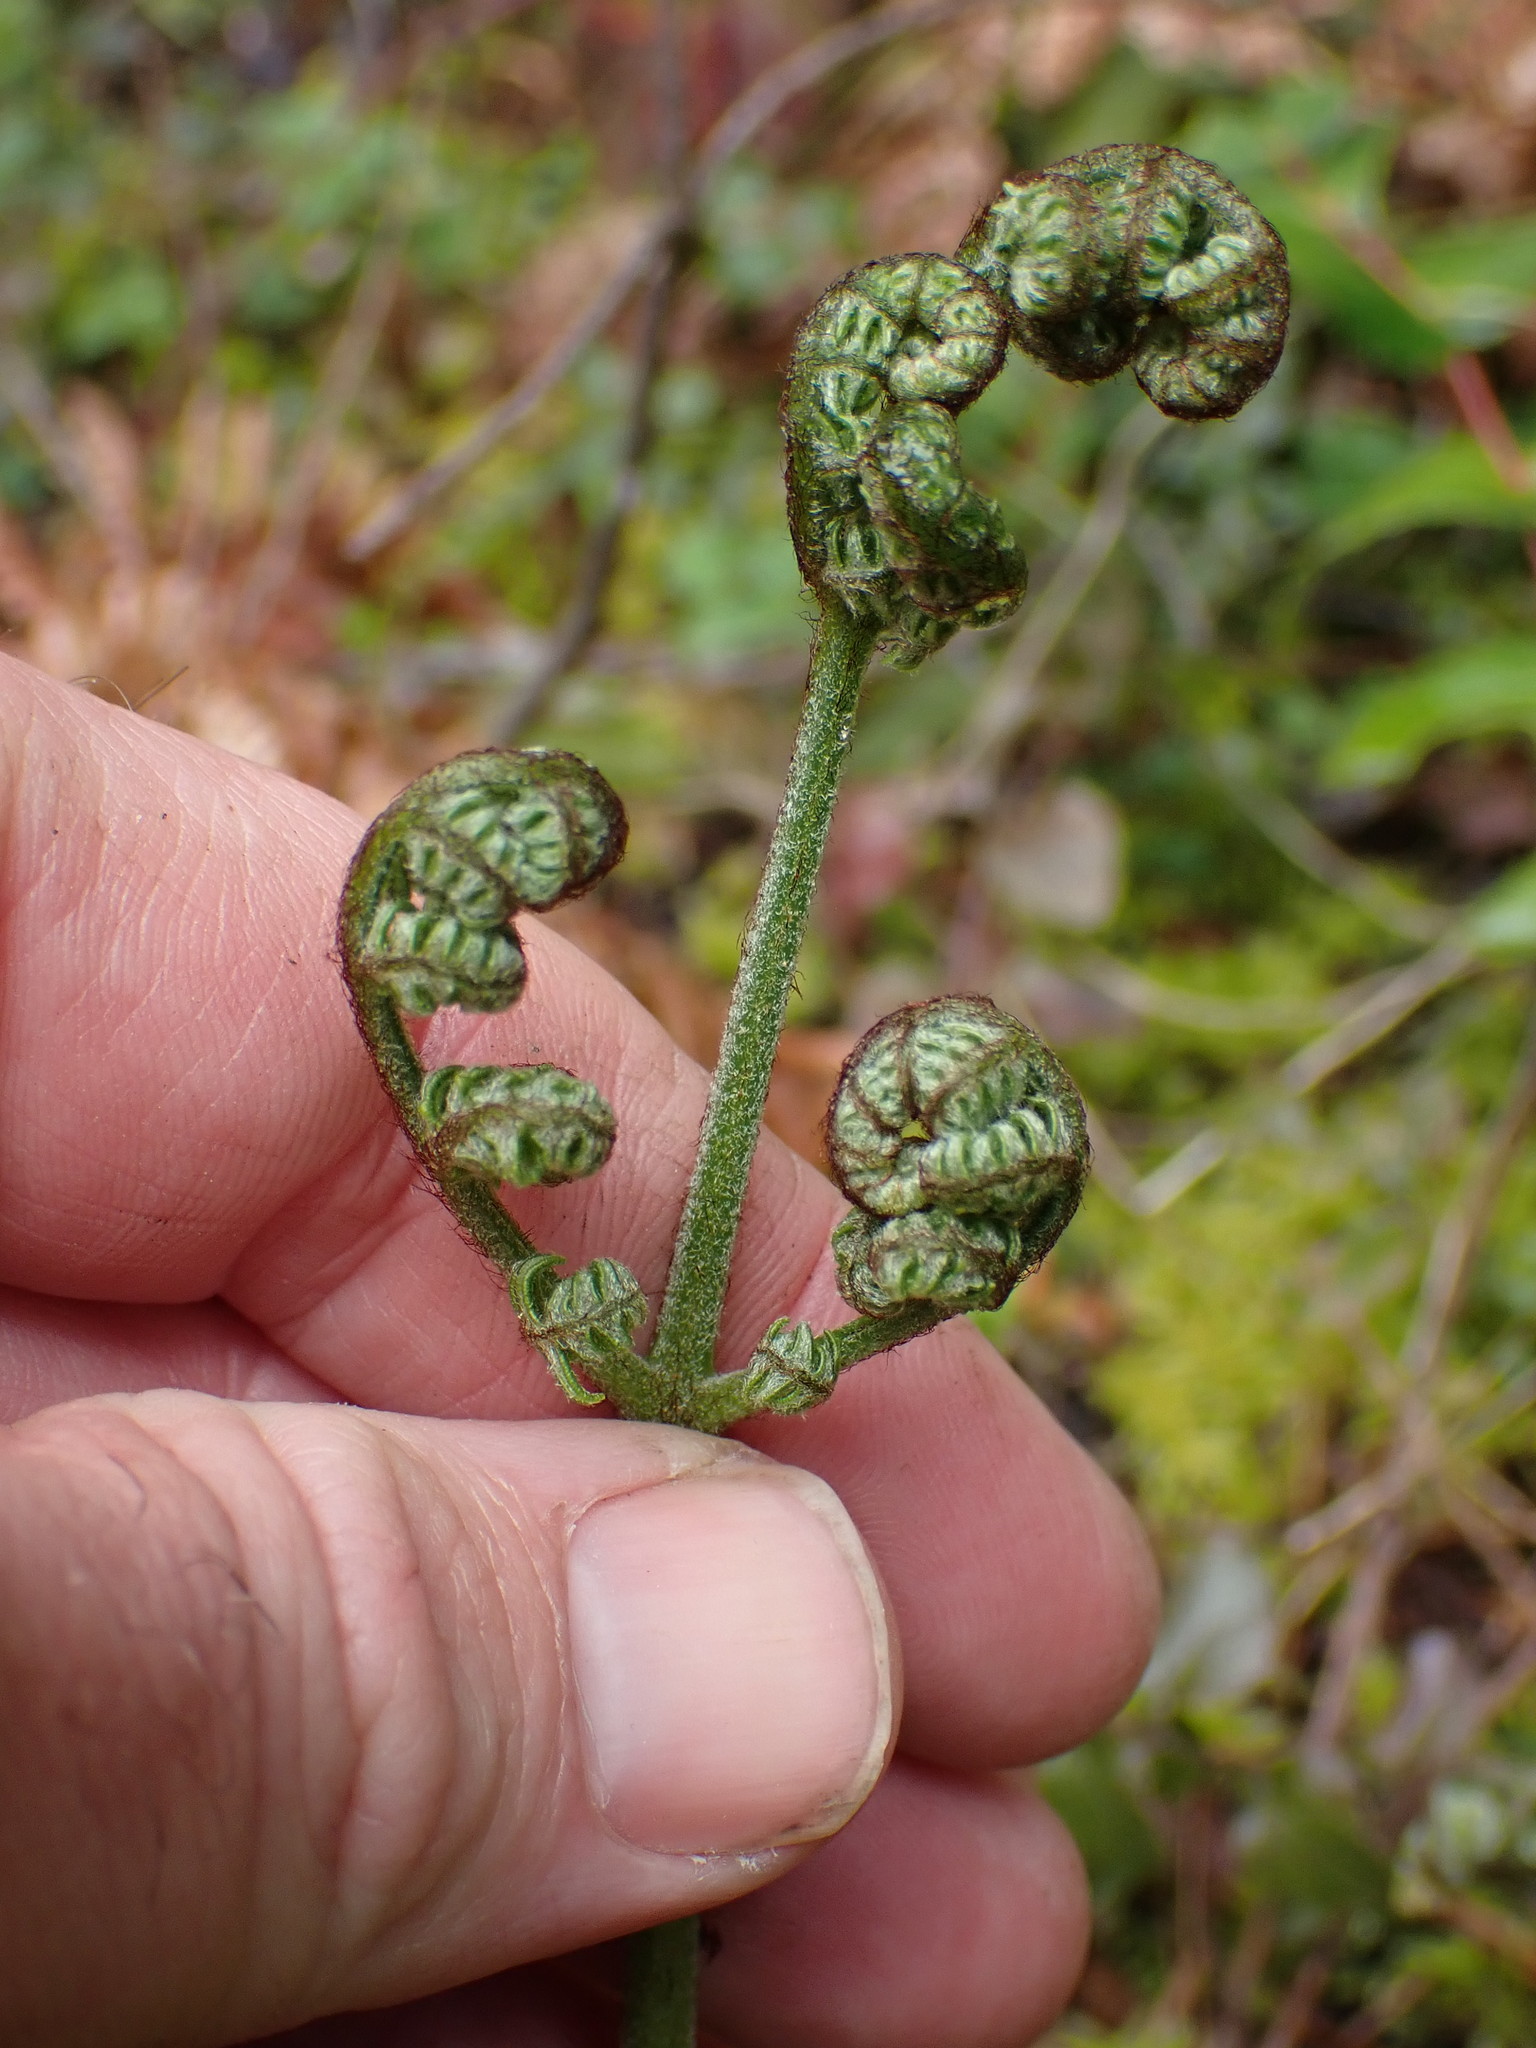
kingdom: Plantae
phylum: Tracheophyta
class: Polypodiopsida
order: Polypodiales
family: Dennstaedtiaceae
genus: Pteridium
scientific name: Pteridium aquilinum
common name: Bracken
